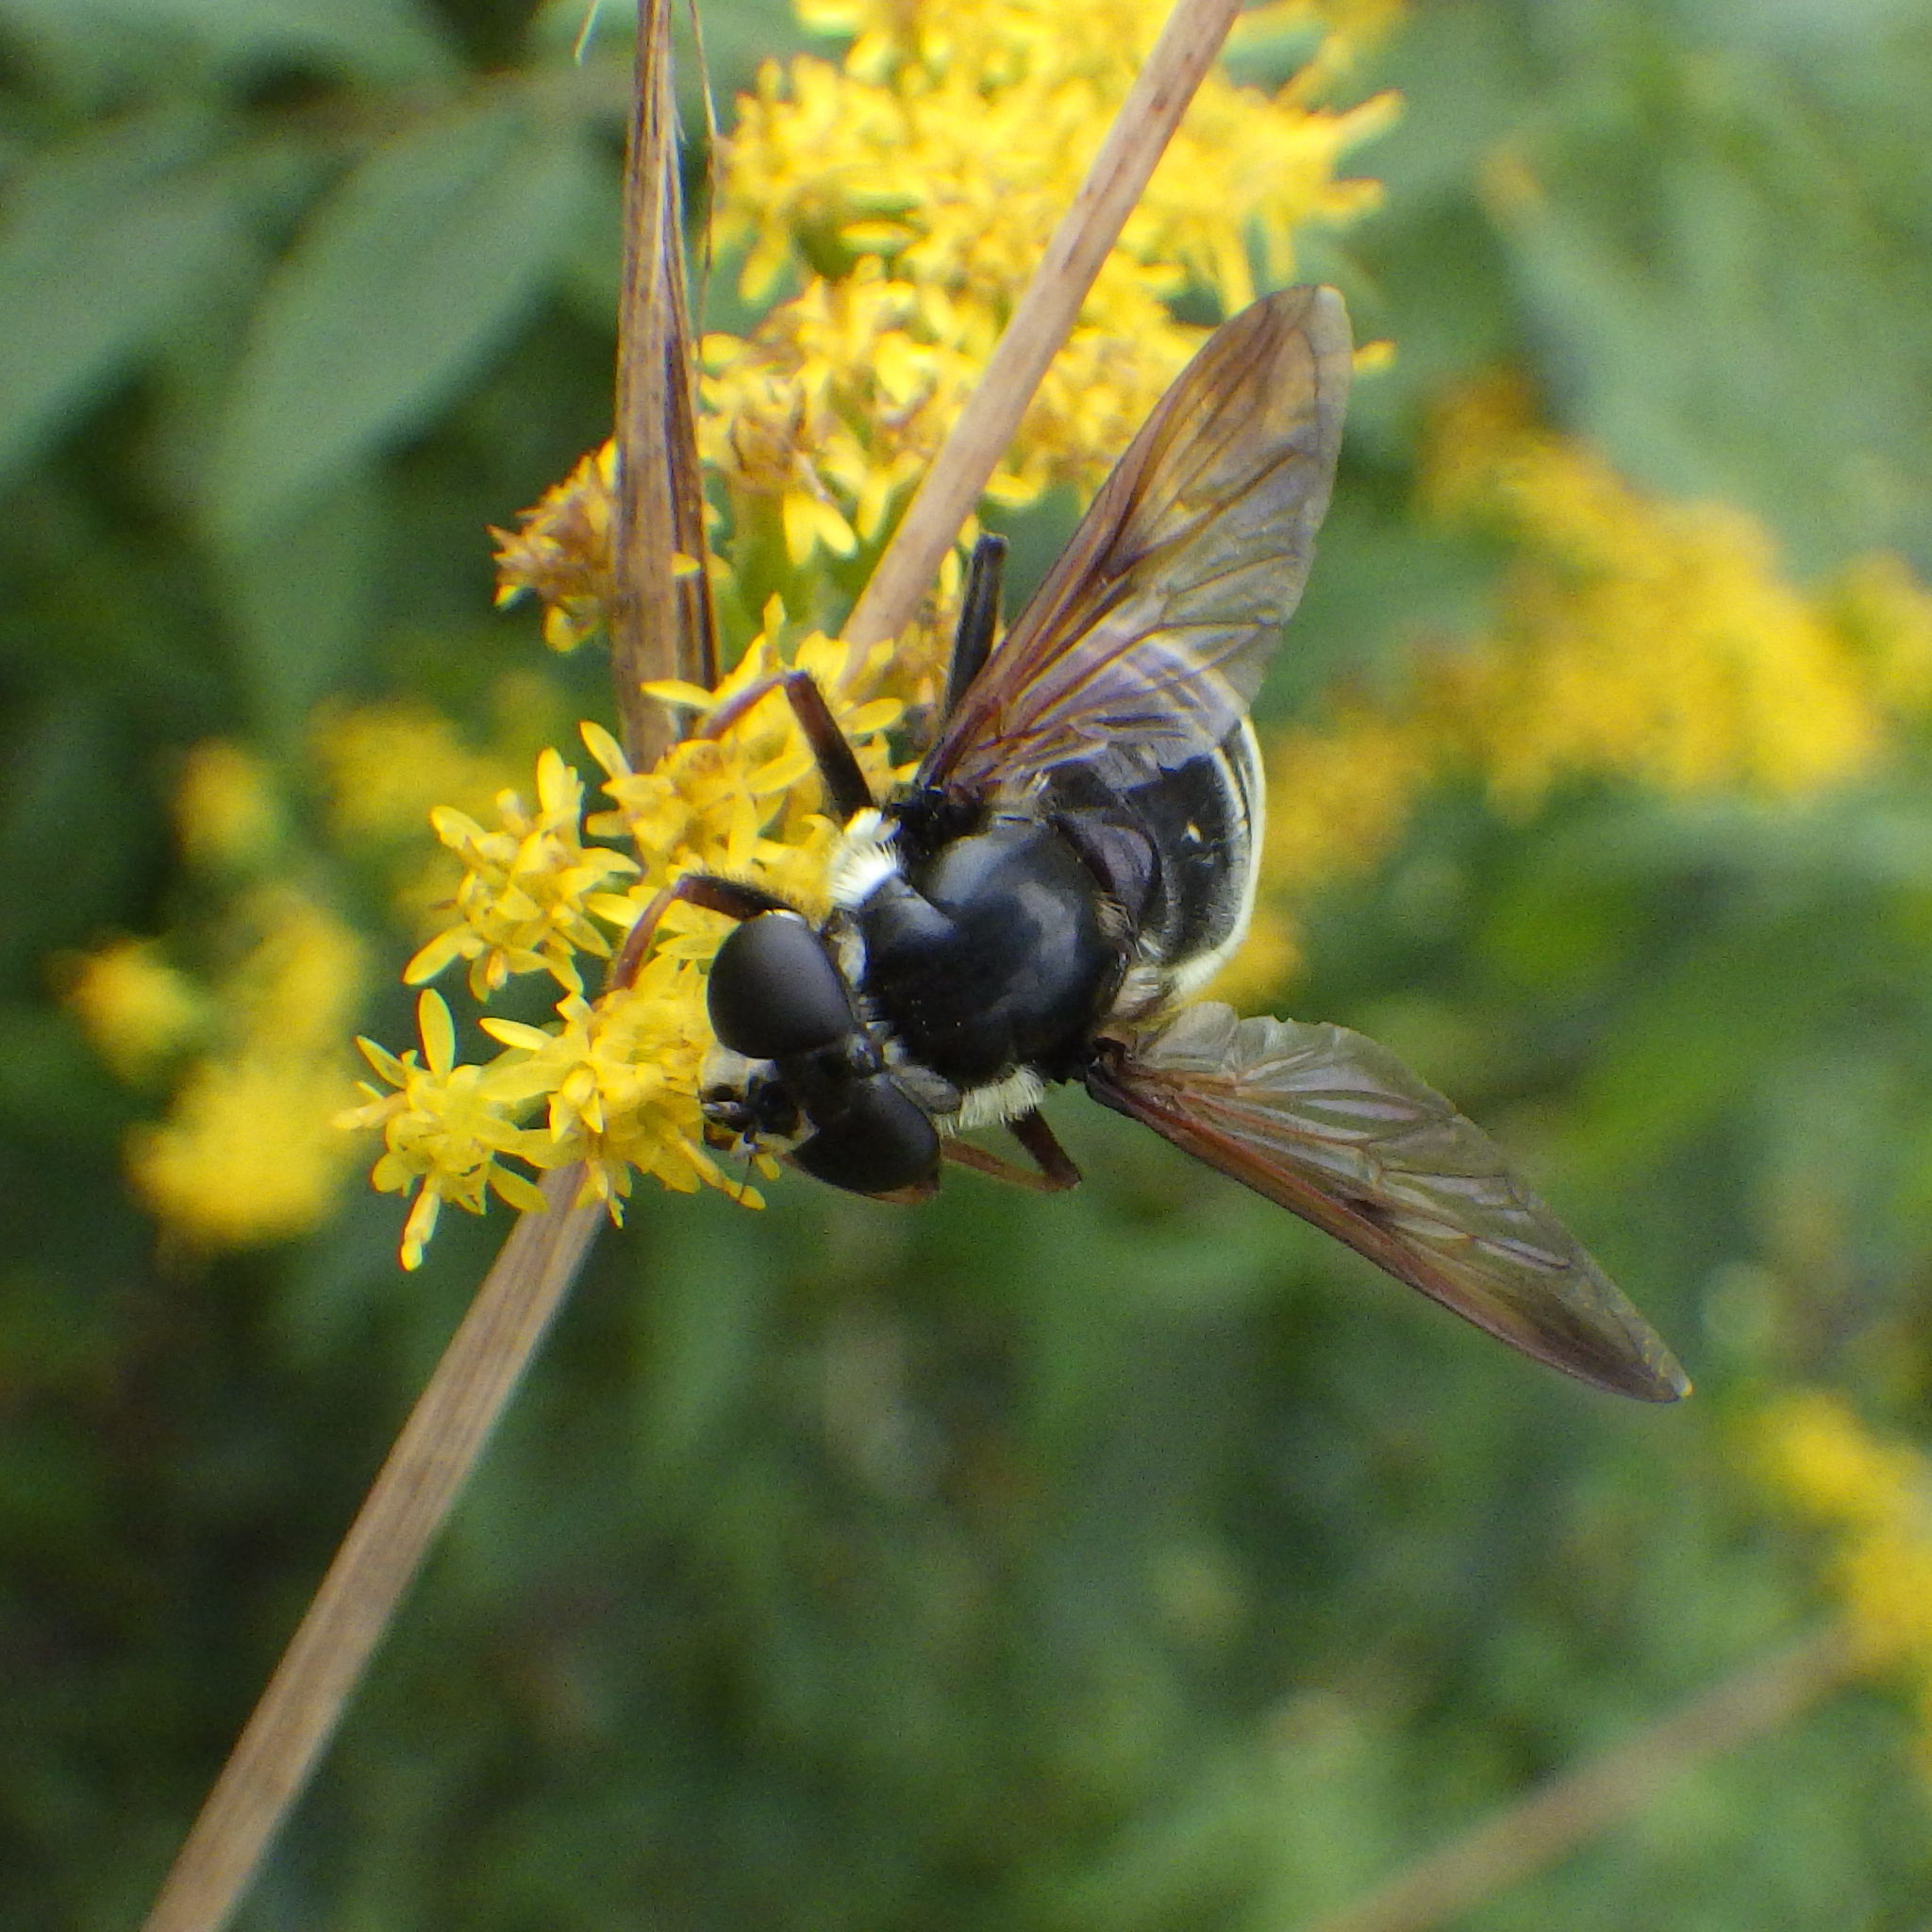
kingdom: Animalia
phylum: Arthropoda
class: Insecta
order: Diptera
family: Syrphidae
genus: Sericomyia
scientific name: Sericomyia militaris
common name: Narrow-banded pond fly
